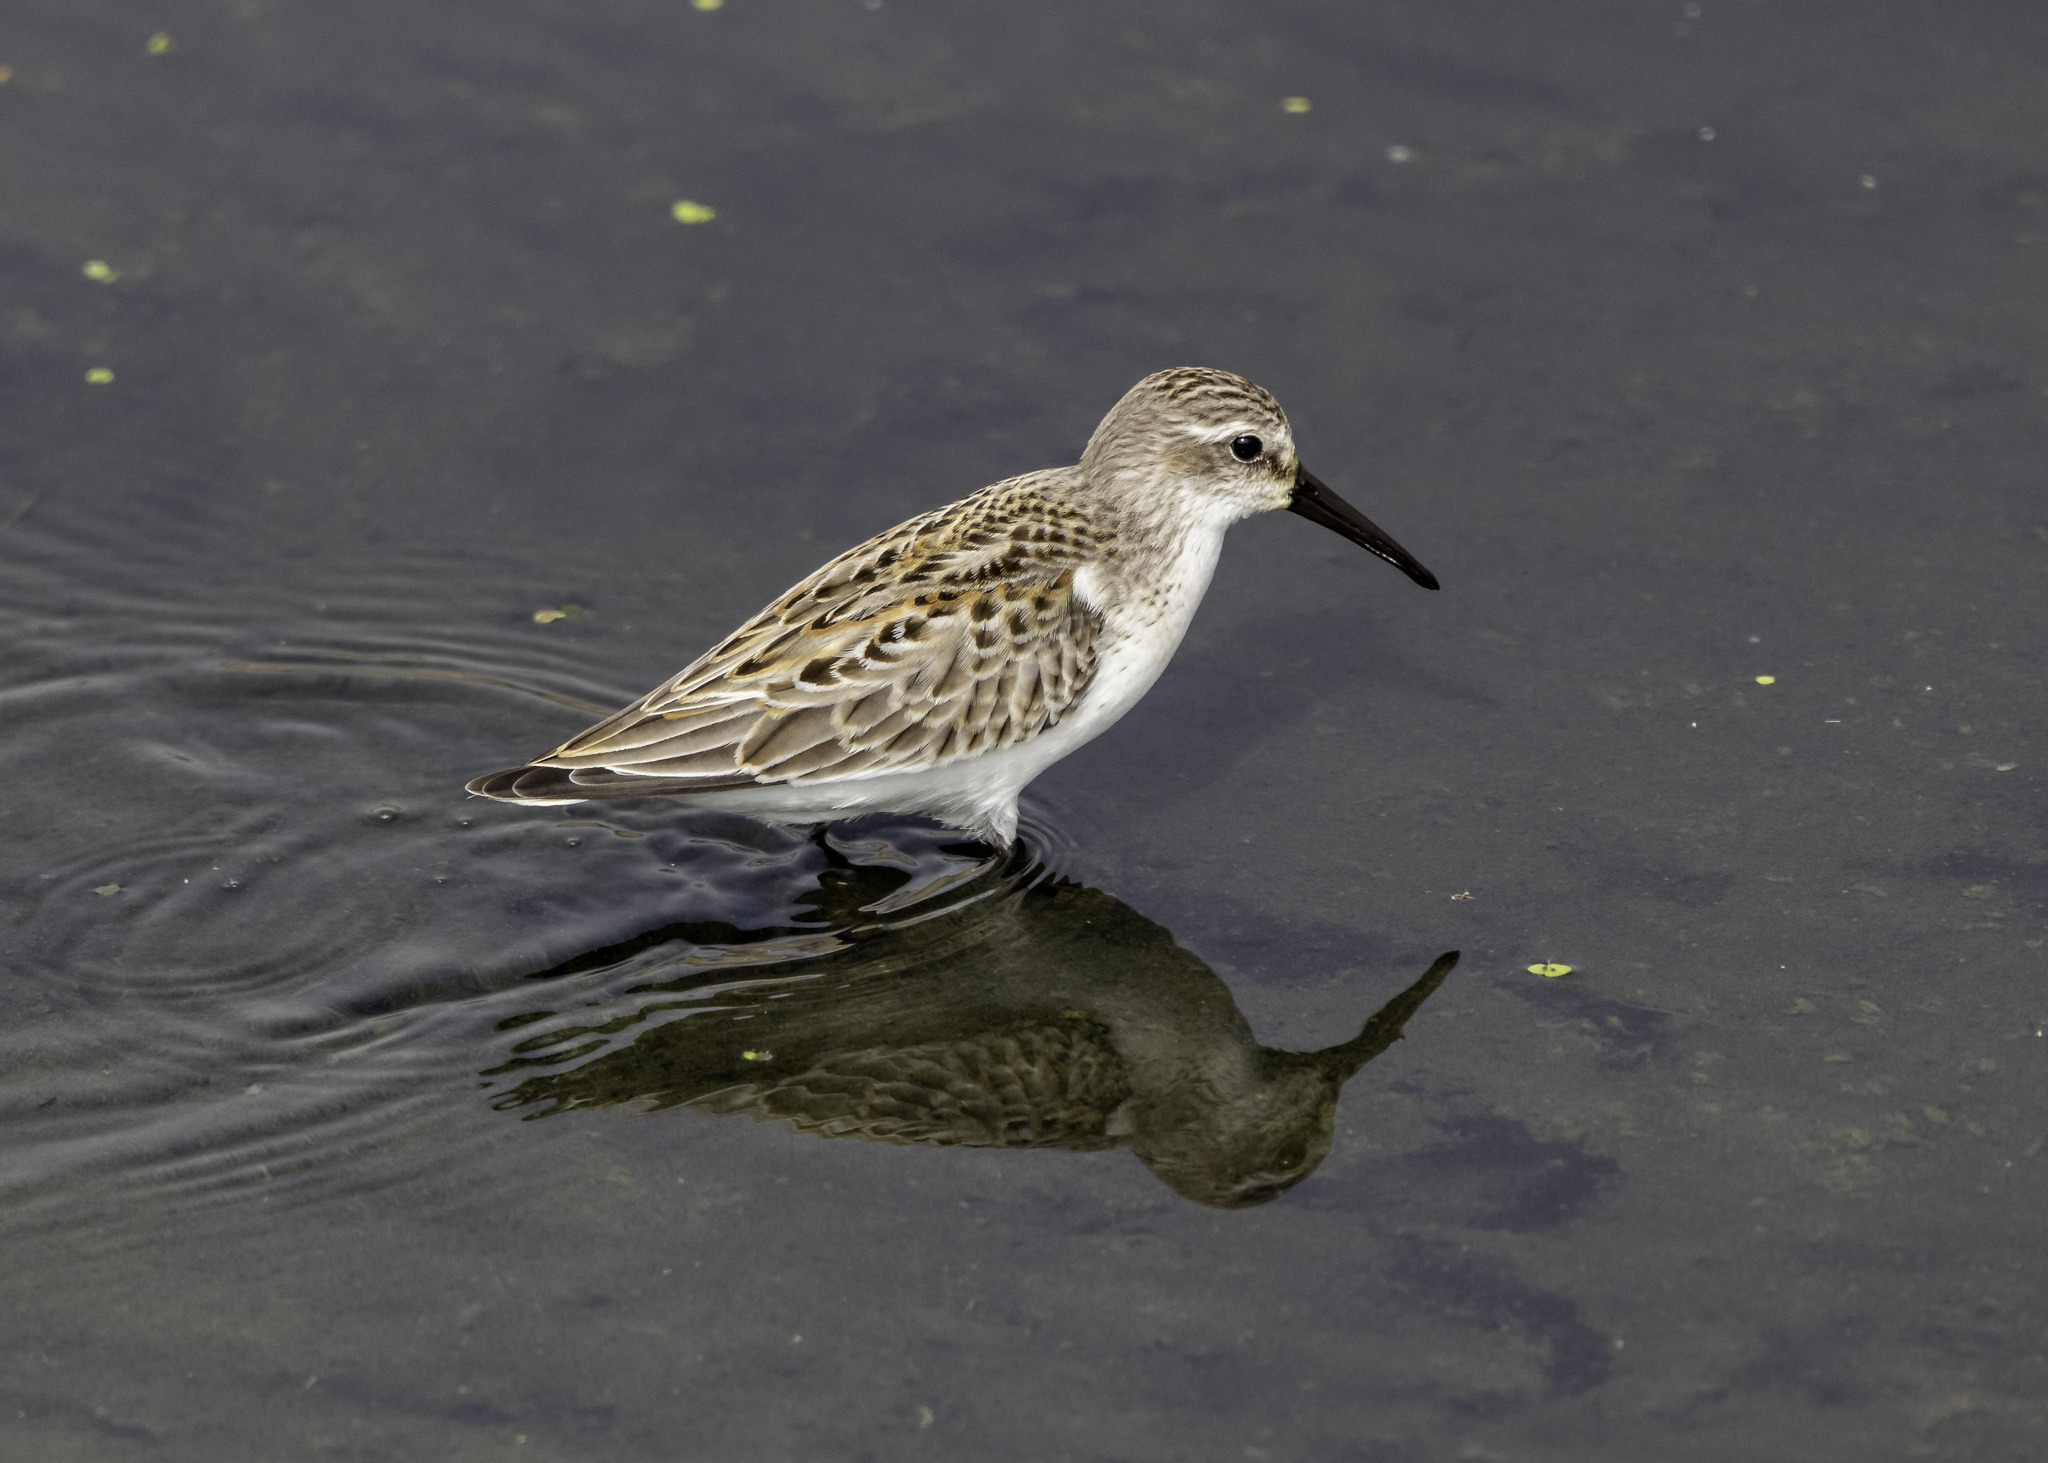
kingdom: Animalia
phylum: Chordata
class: Aves
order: Charadriiformes
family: Scolopacidae
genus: Calidris
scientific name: Calidris mauri
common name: Western sandpiper
